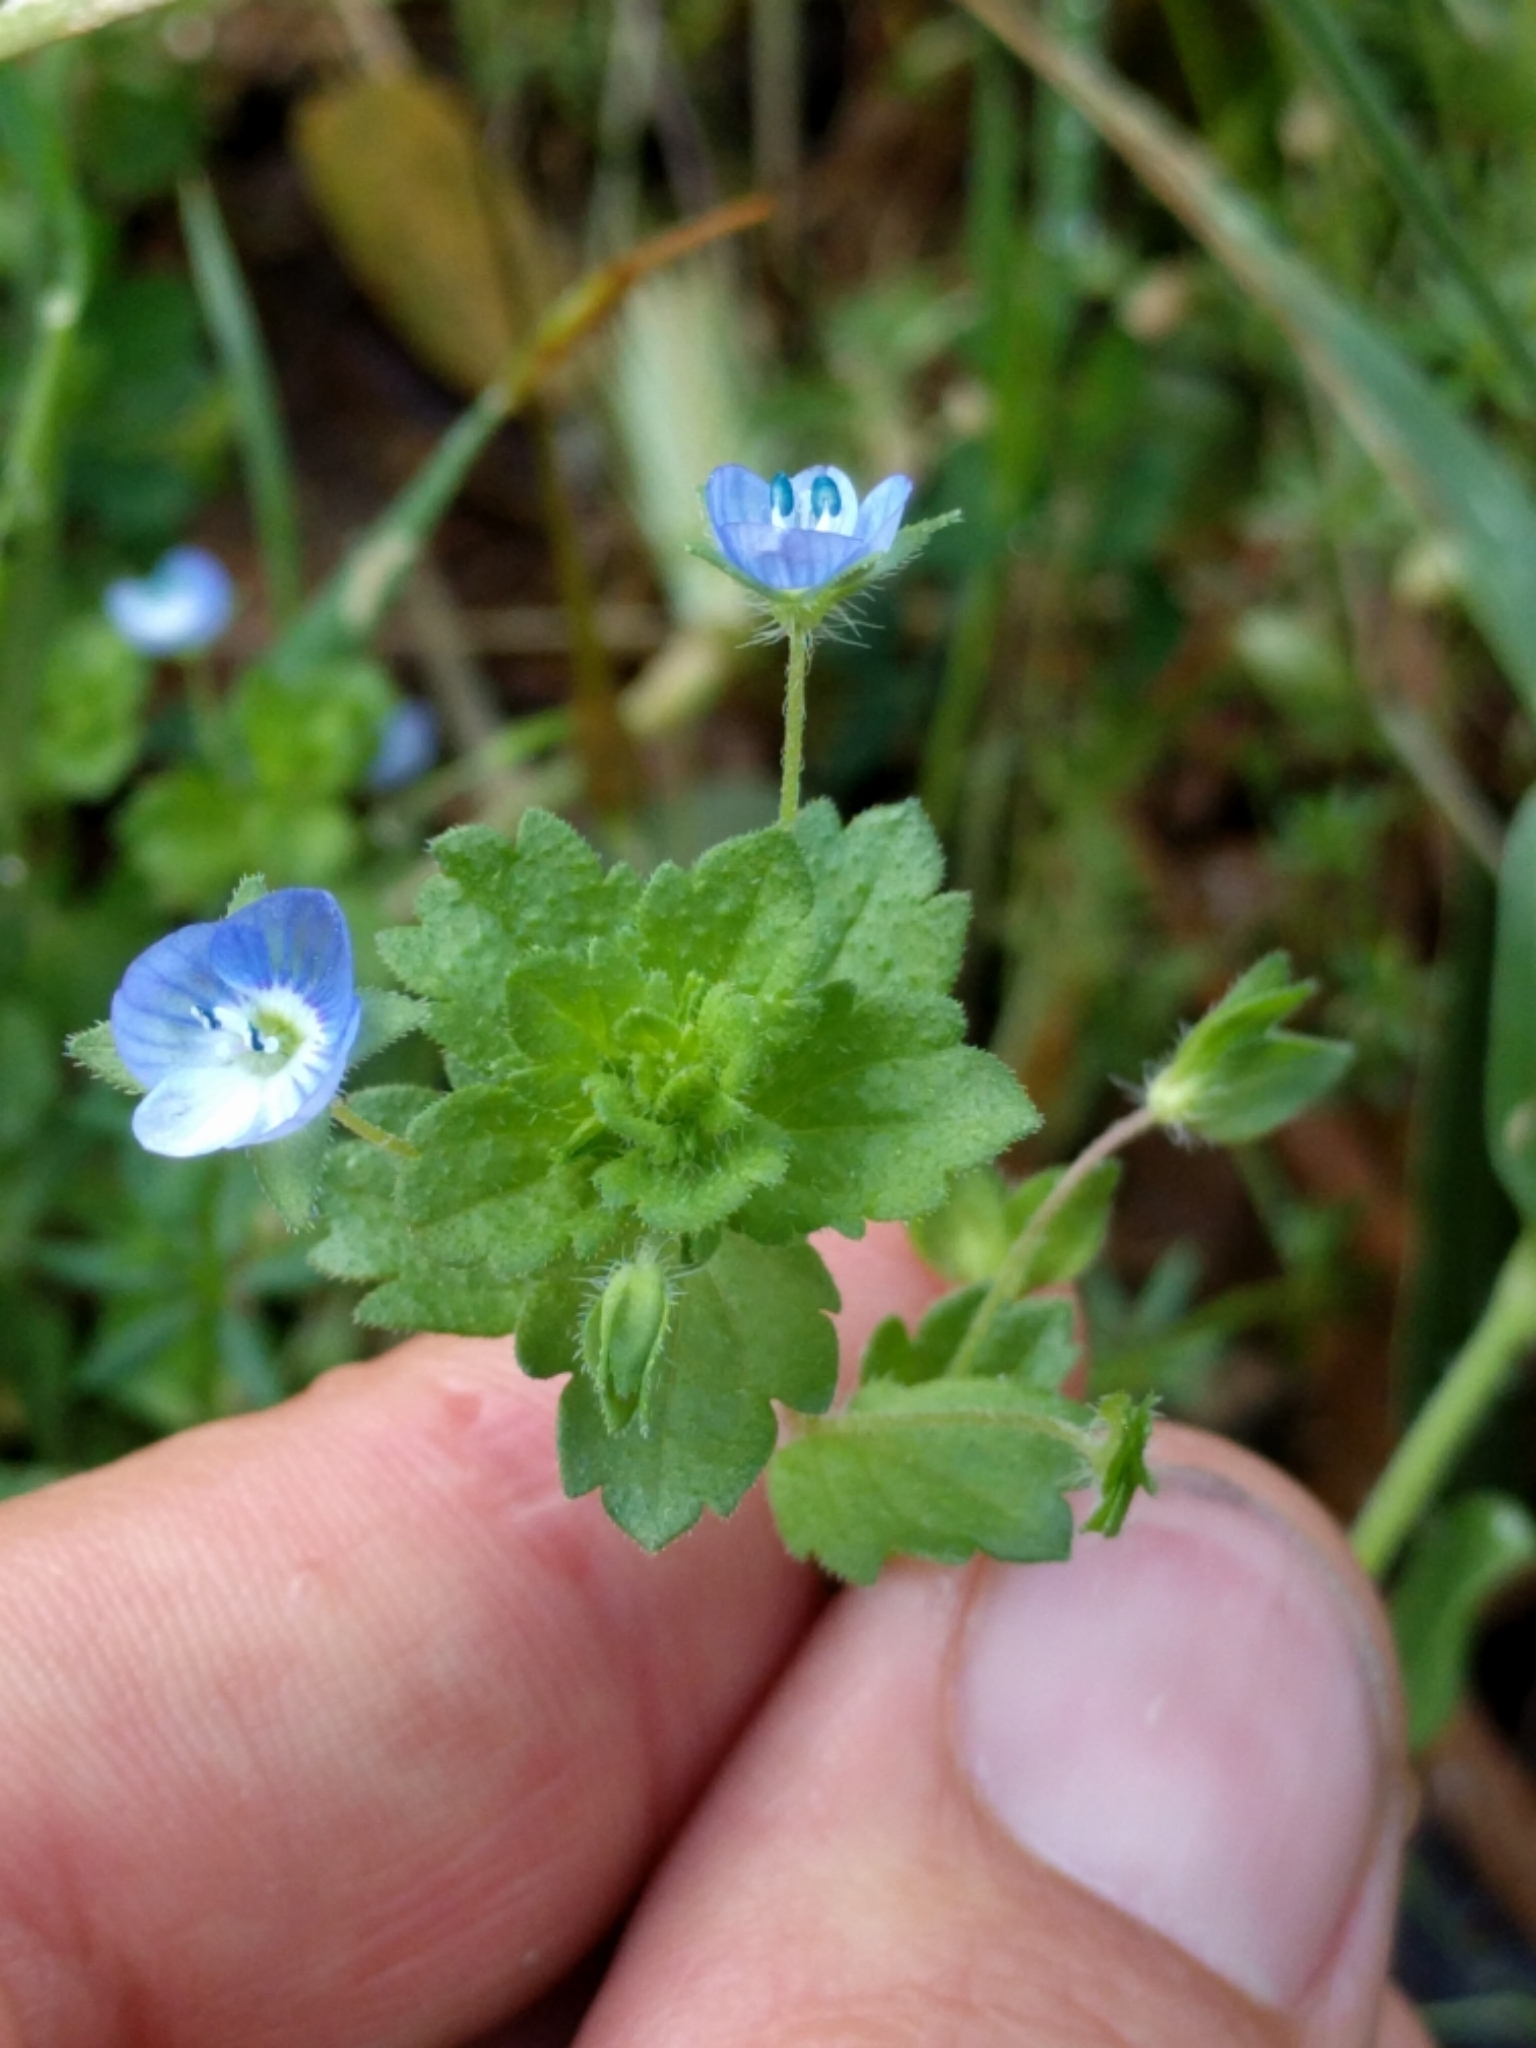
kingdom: Plantae
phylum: Tracheophyta
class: Magnoliopsida
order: Lamiales
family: Plantaginaceae
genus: Veronica
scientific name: Veronica persica
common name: Common field-speedwell
